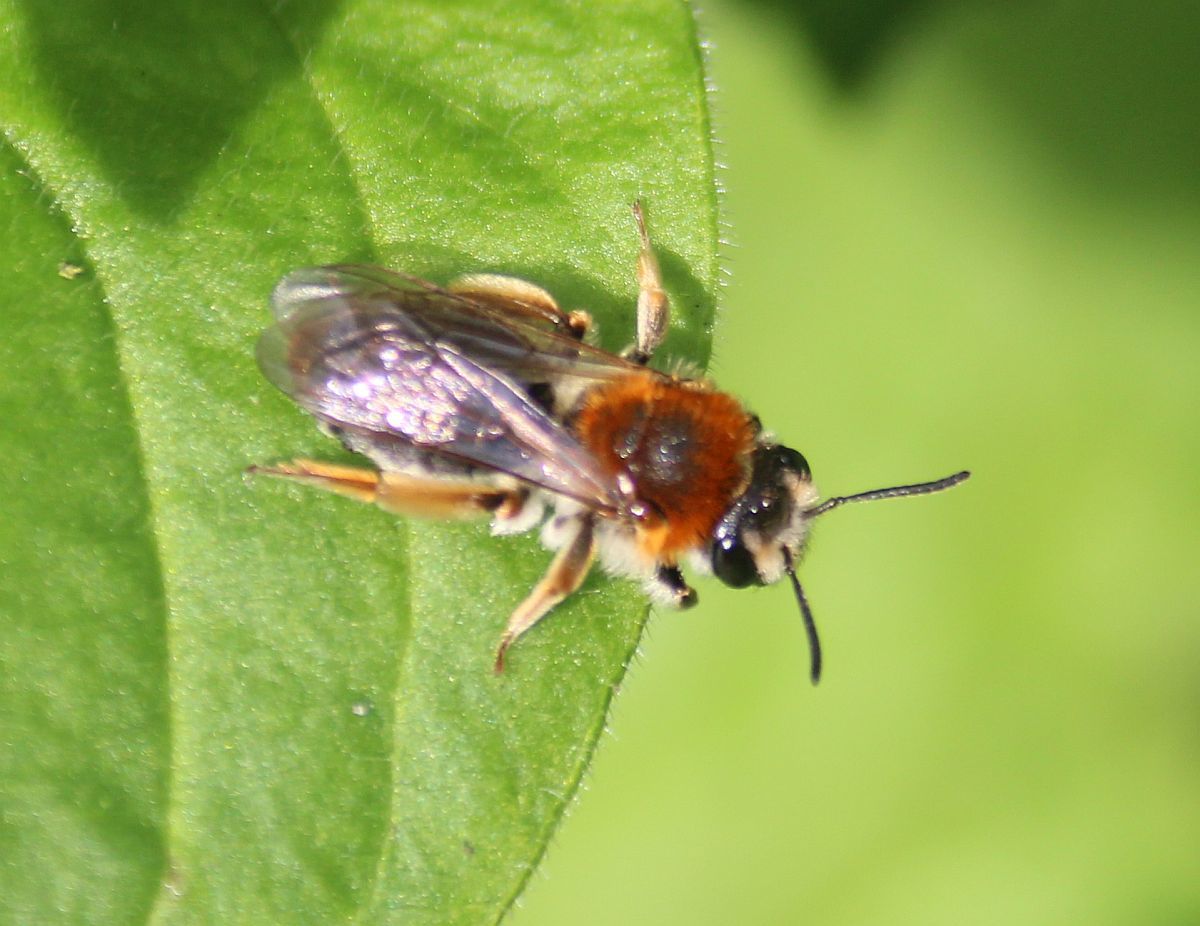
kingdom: Animalia
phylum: Arthropoda
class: Insecta
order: Hymenoptera
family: Andrenidae
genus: Andrena
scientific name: Andrena haemorrhoa
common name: Early mining bee
